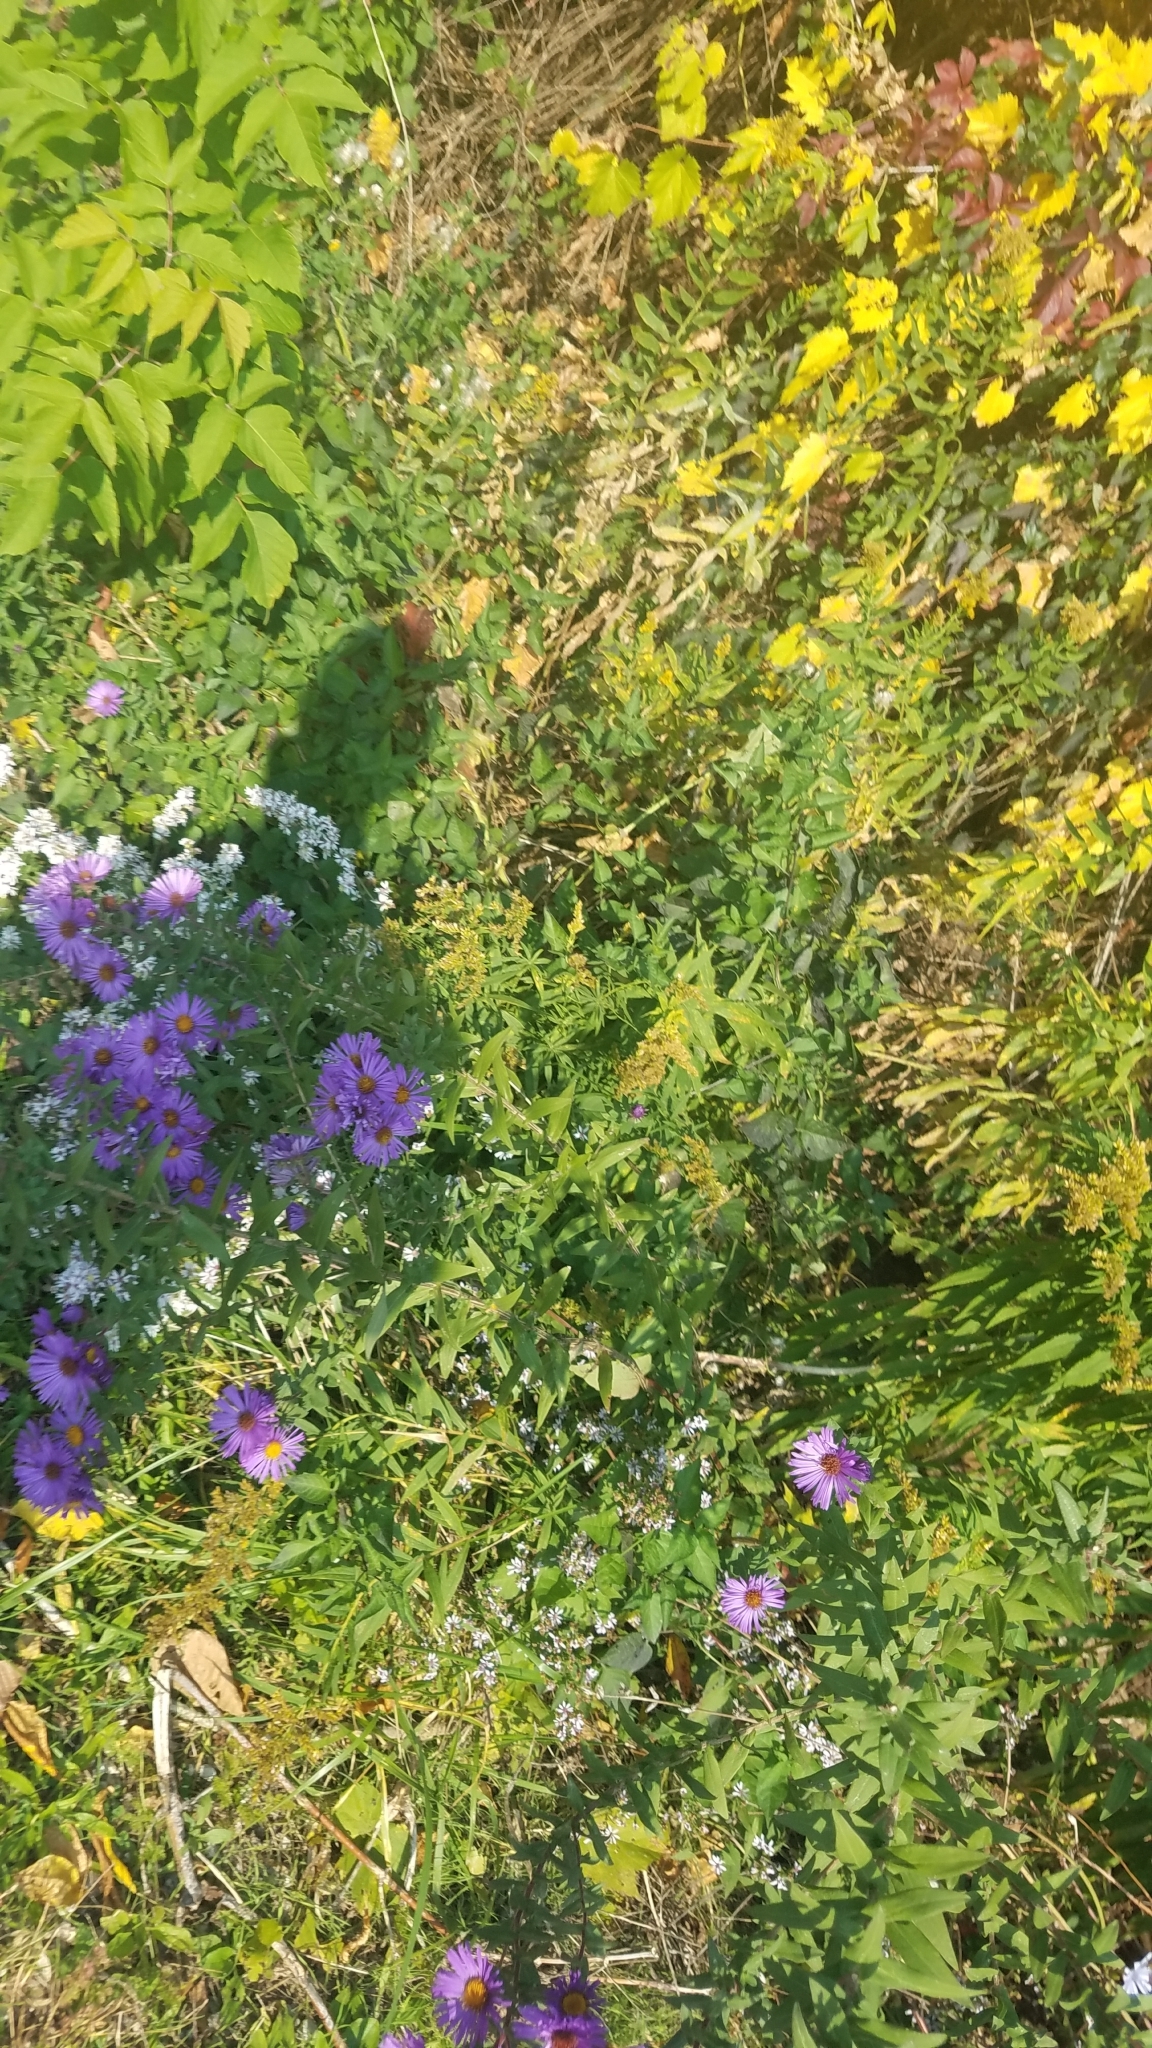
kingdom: Plantae
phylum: Tracheophyta
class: Magnoliopsida
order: Asterales
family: Asteraceae
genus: Symphyotrichum
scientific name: Symphyotrichum novae-angliae
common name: Michaelmas daisy
